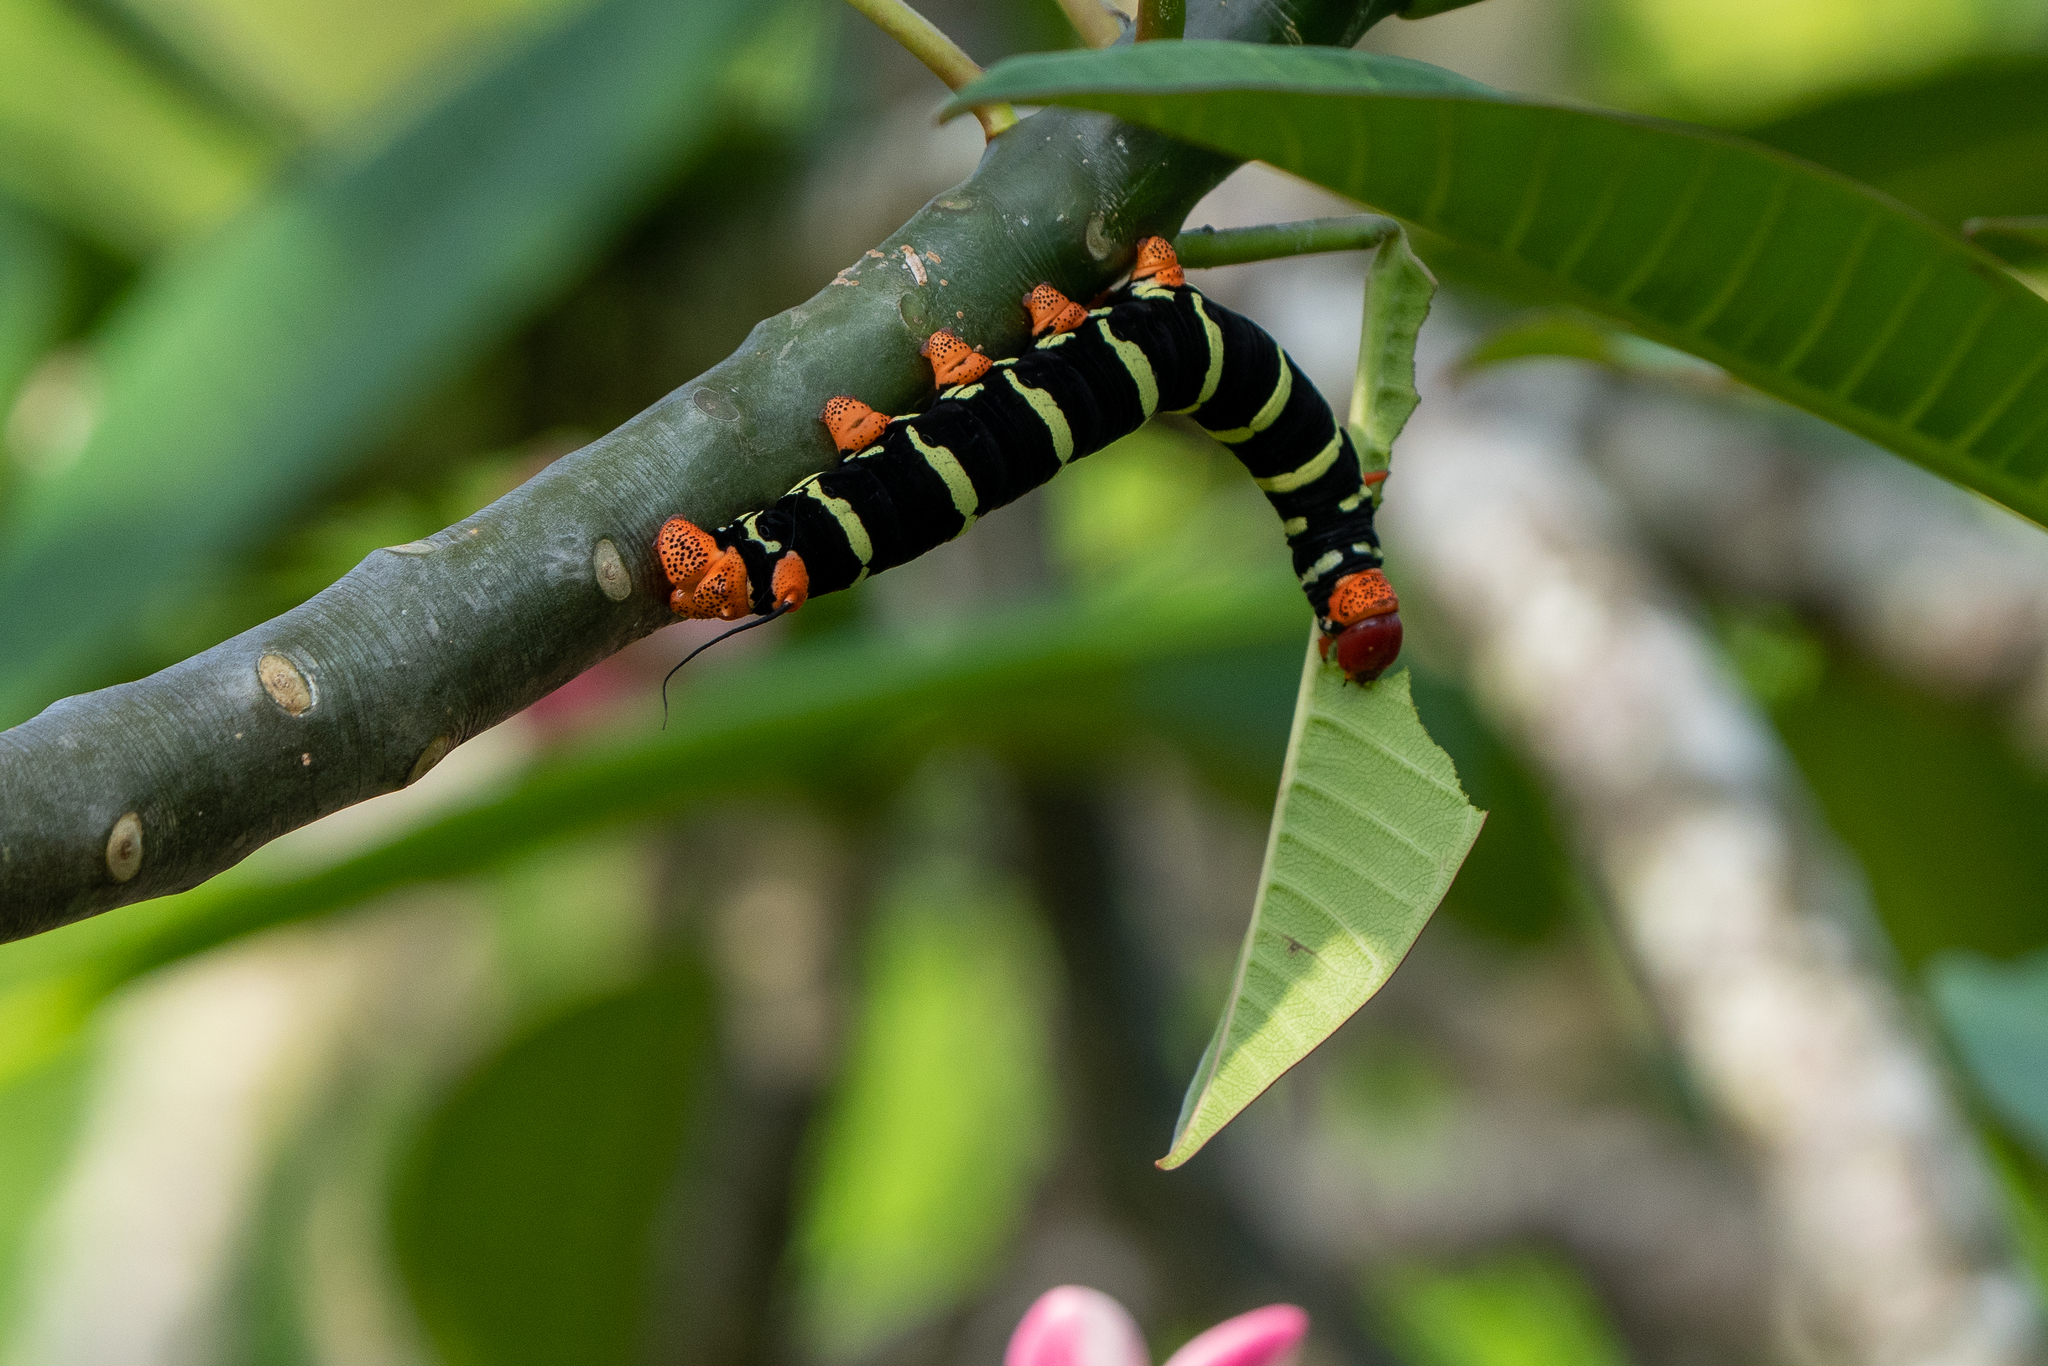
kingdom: Animalia
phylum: Arthropoda
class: Insecta
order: Lepidoptera
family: Sphingidae
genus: Pseudosphinx
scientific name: Pseudosphinx tetrio
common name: Tetrio sphinx
